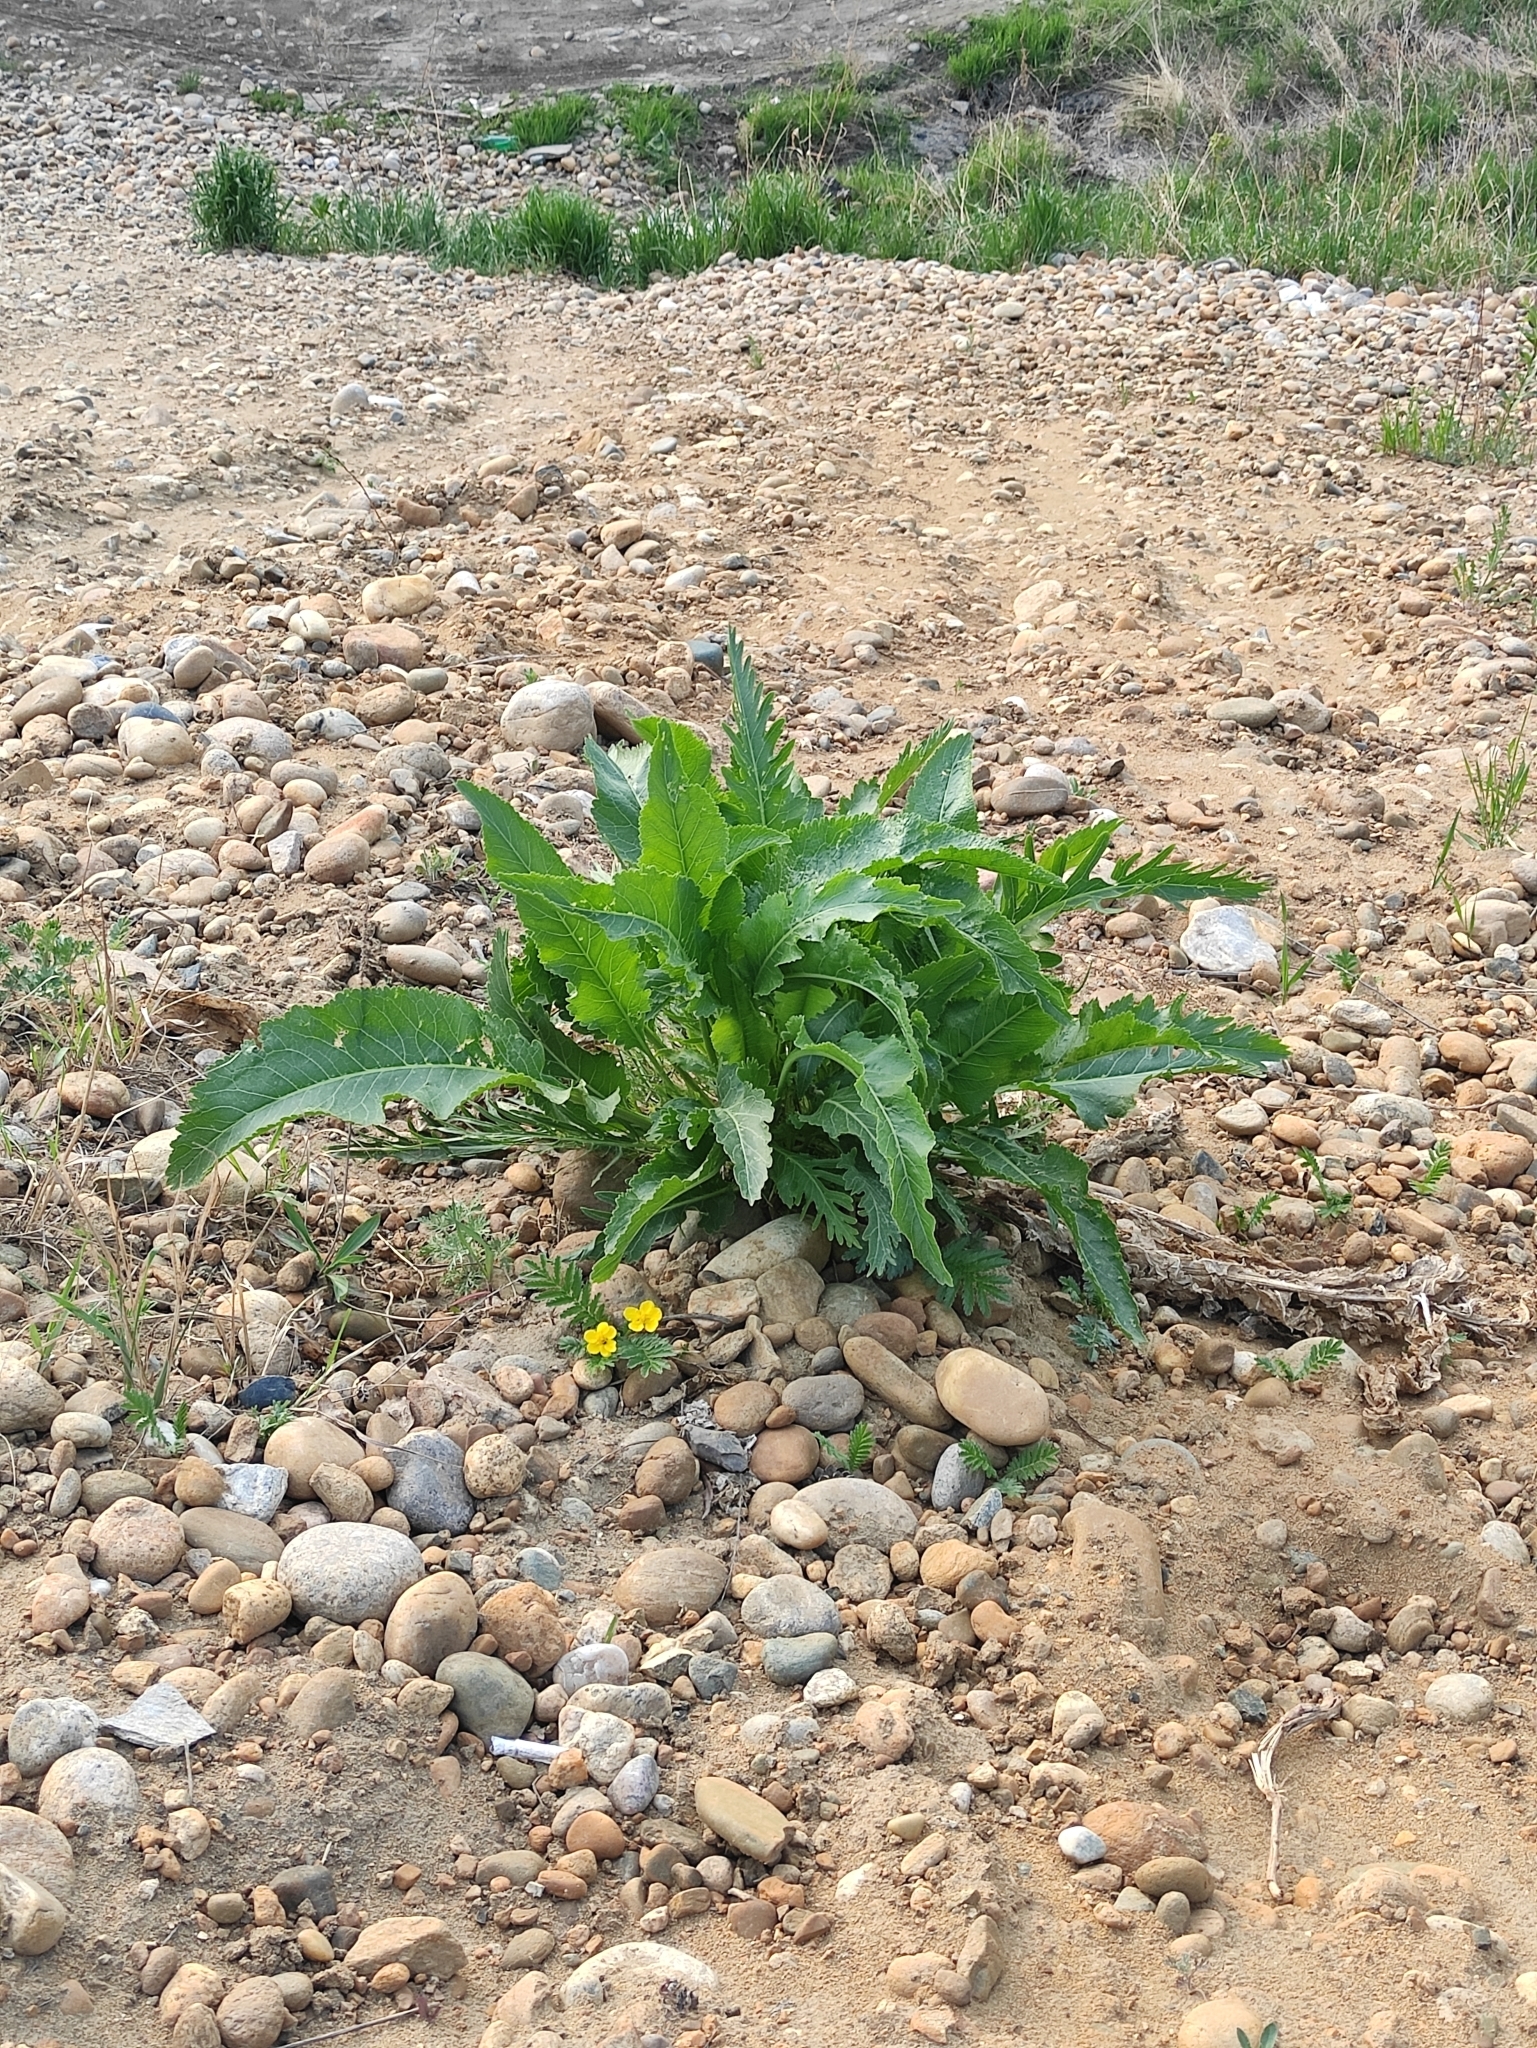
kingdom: Plantae
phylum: Tracheophyta
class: Magnoliopsida
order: Brassicales
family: Brassicaceae
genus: Armoracia
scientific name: Armoracia rusticana
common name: Horseradish
